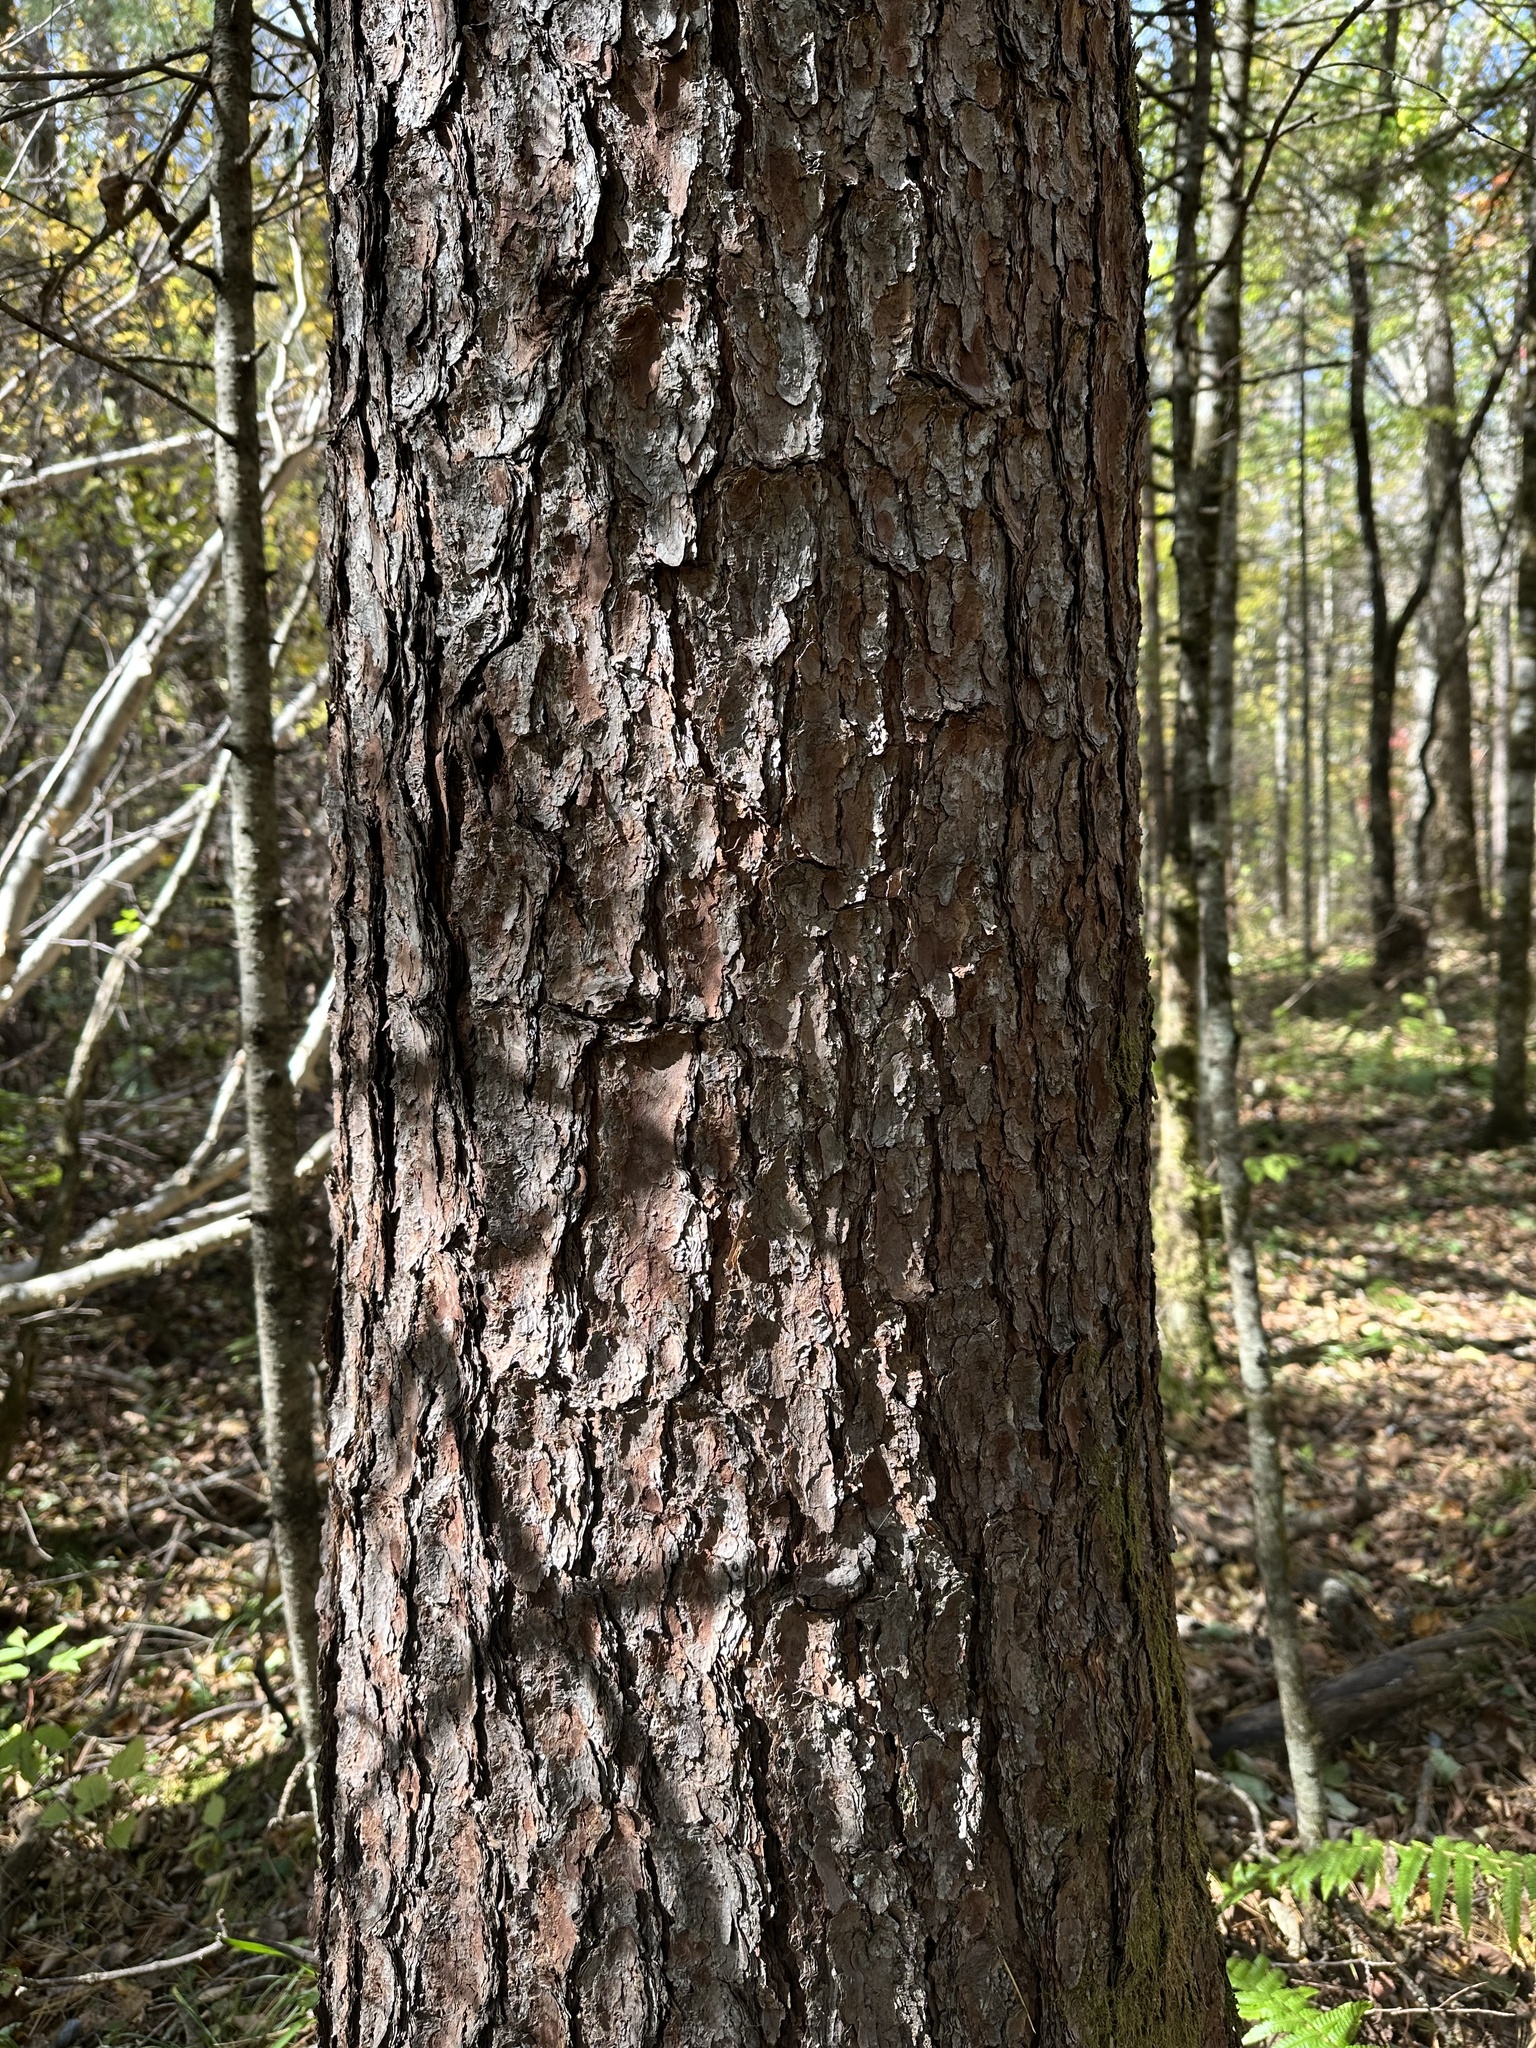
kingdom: Plantae
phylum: Tracheophyta
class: Pinopsida
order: Pinales
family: Pinaceae
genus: Pinus
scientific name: Pinus koraiensis
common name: Korean pine
